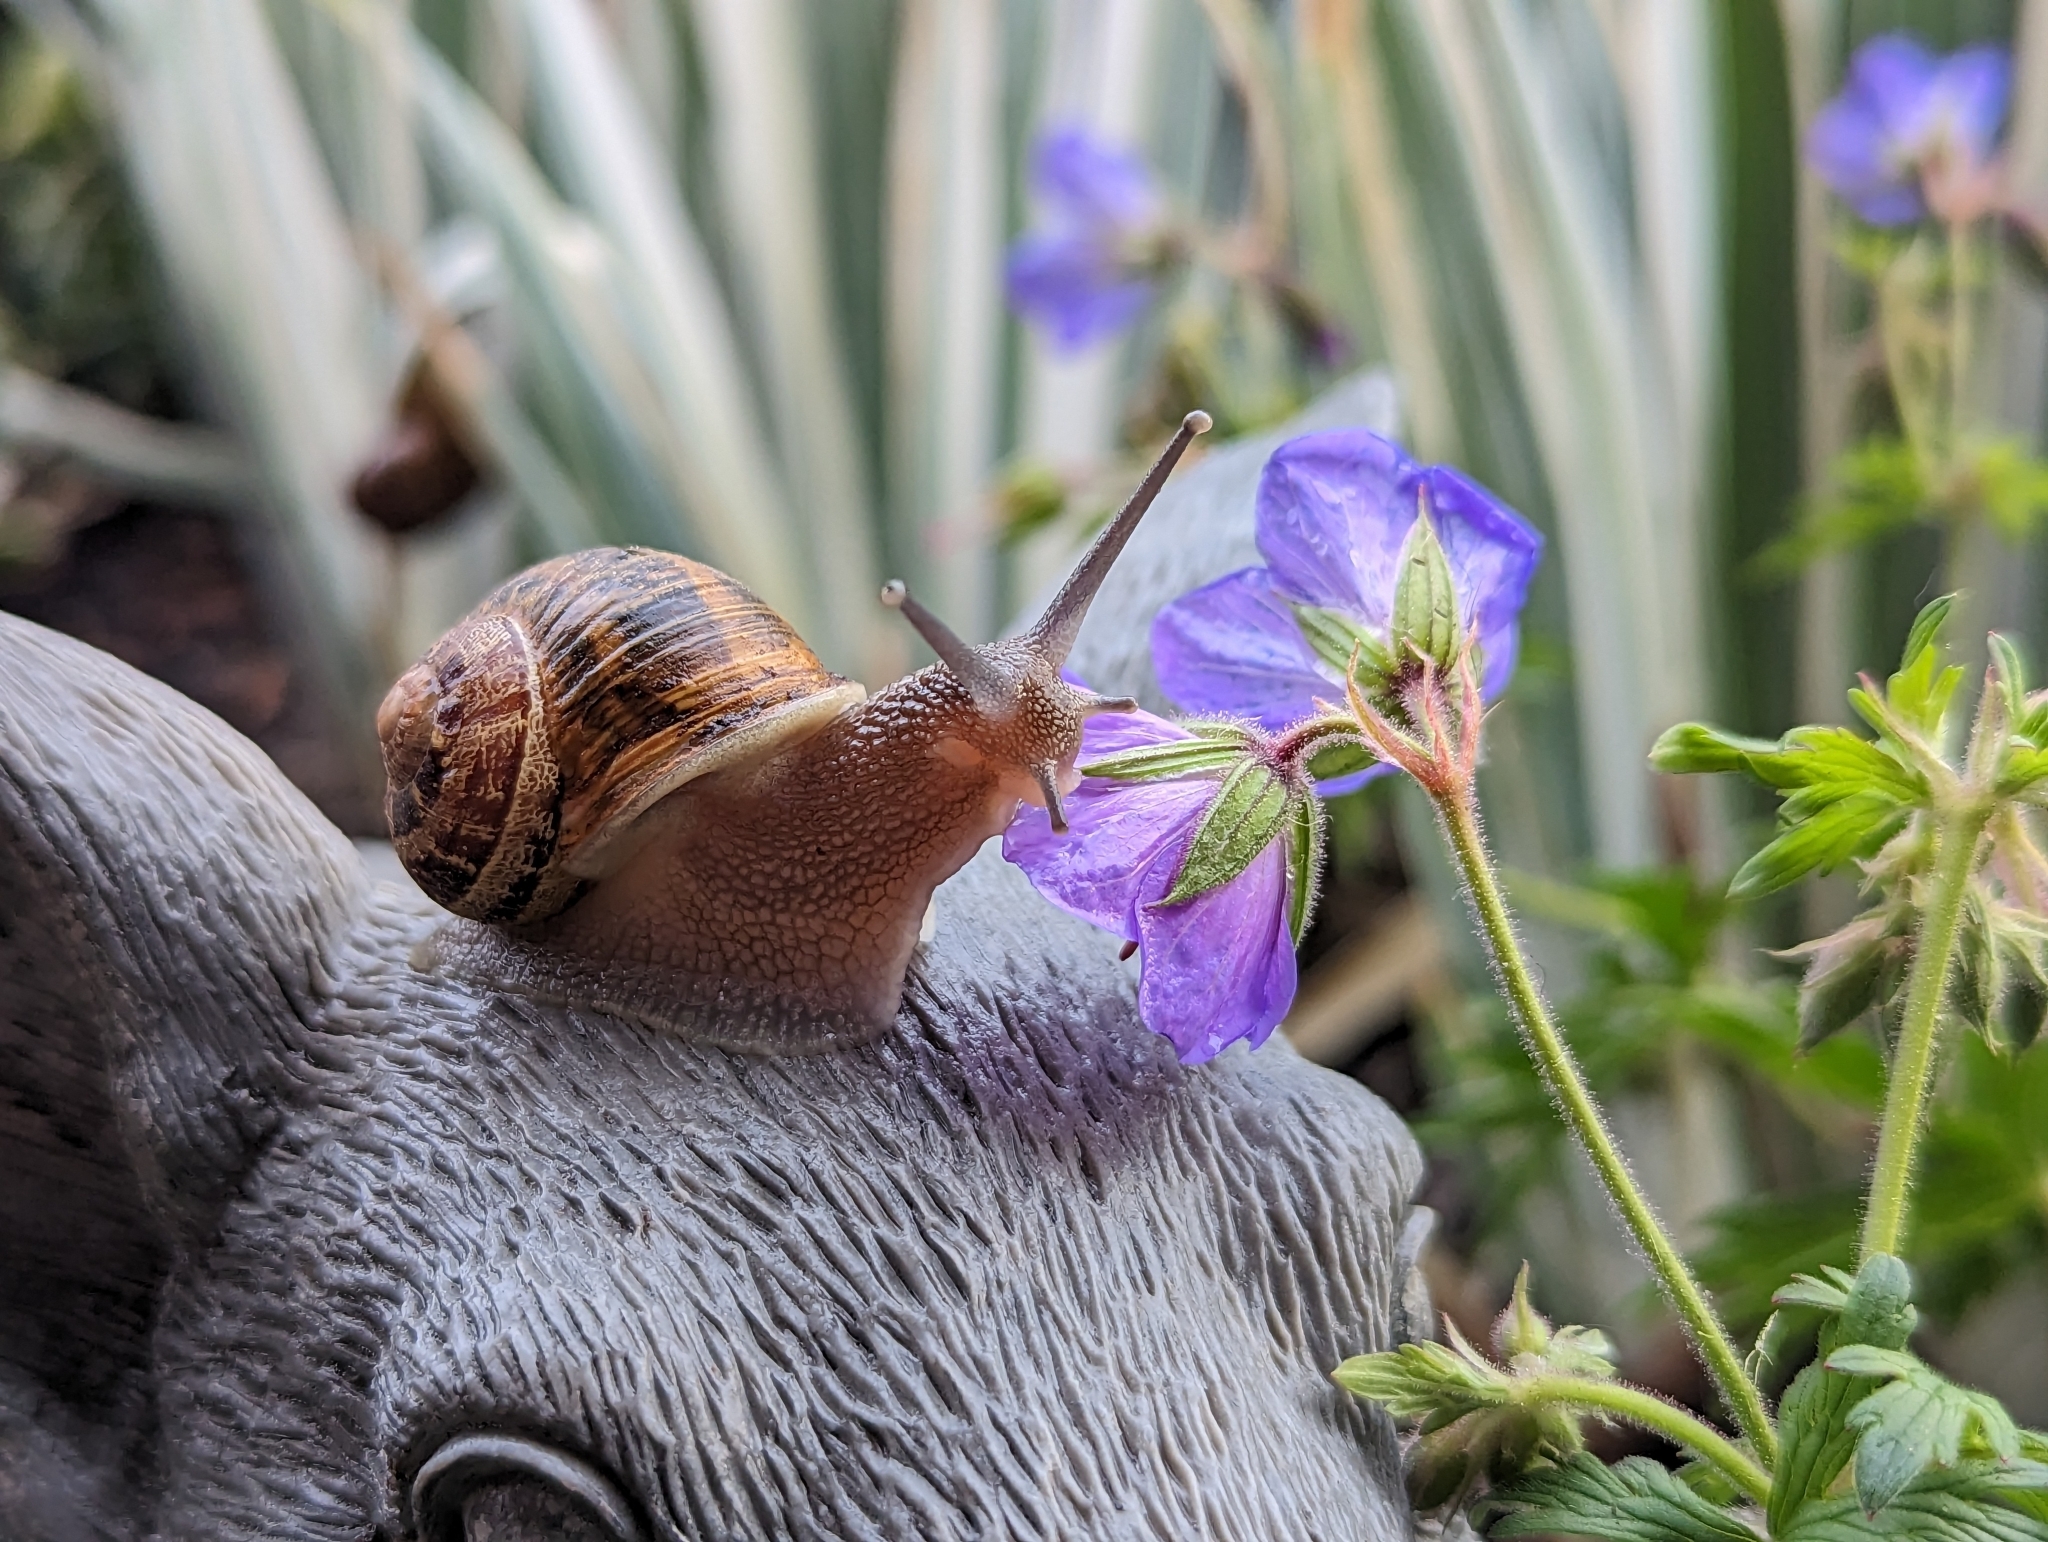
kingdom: Animalia
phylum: Mollusca
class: Gastropoda
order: Stylommatophora
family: Helicidae
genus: Cornu
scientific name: Cornu aspersum
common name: Brown garden snail
